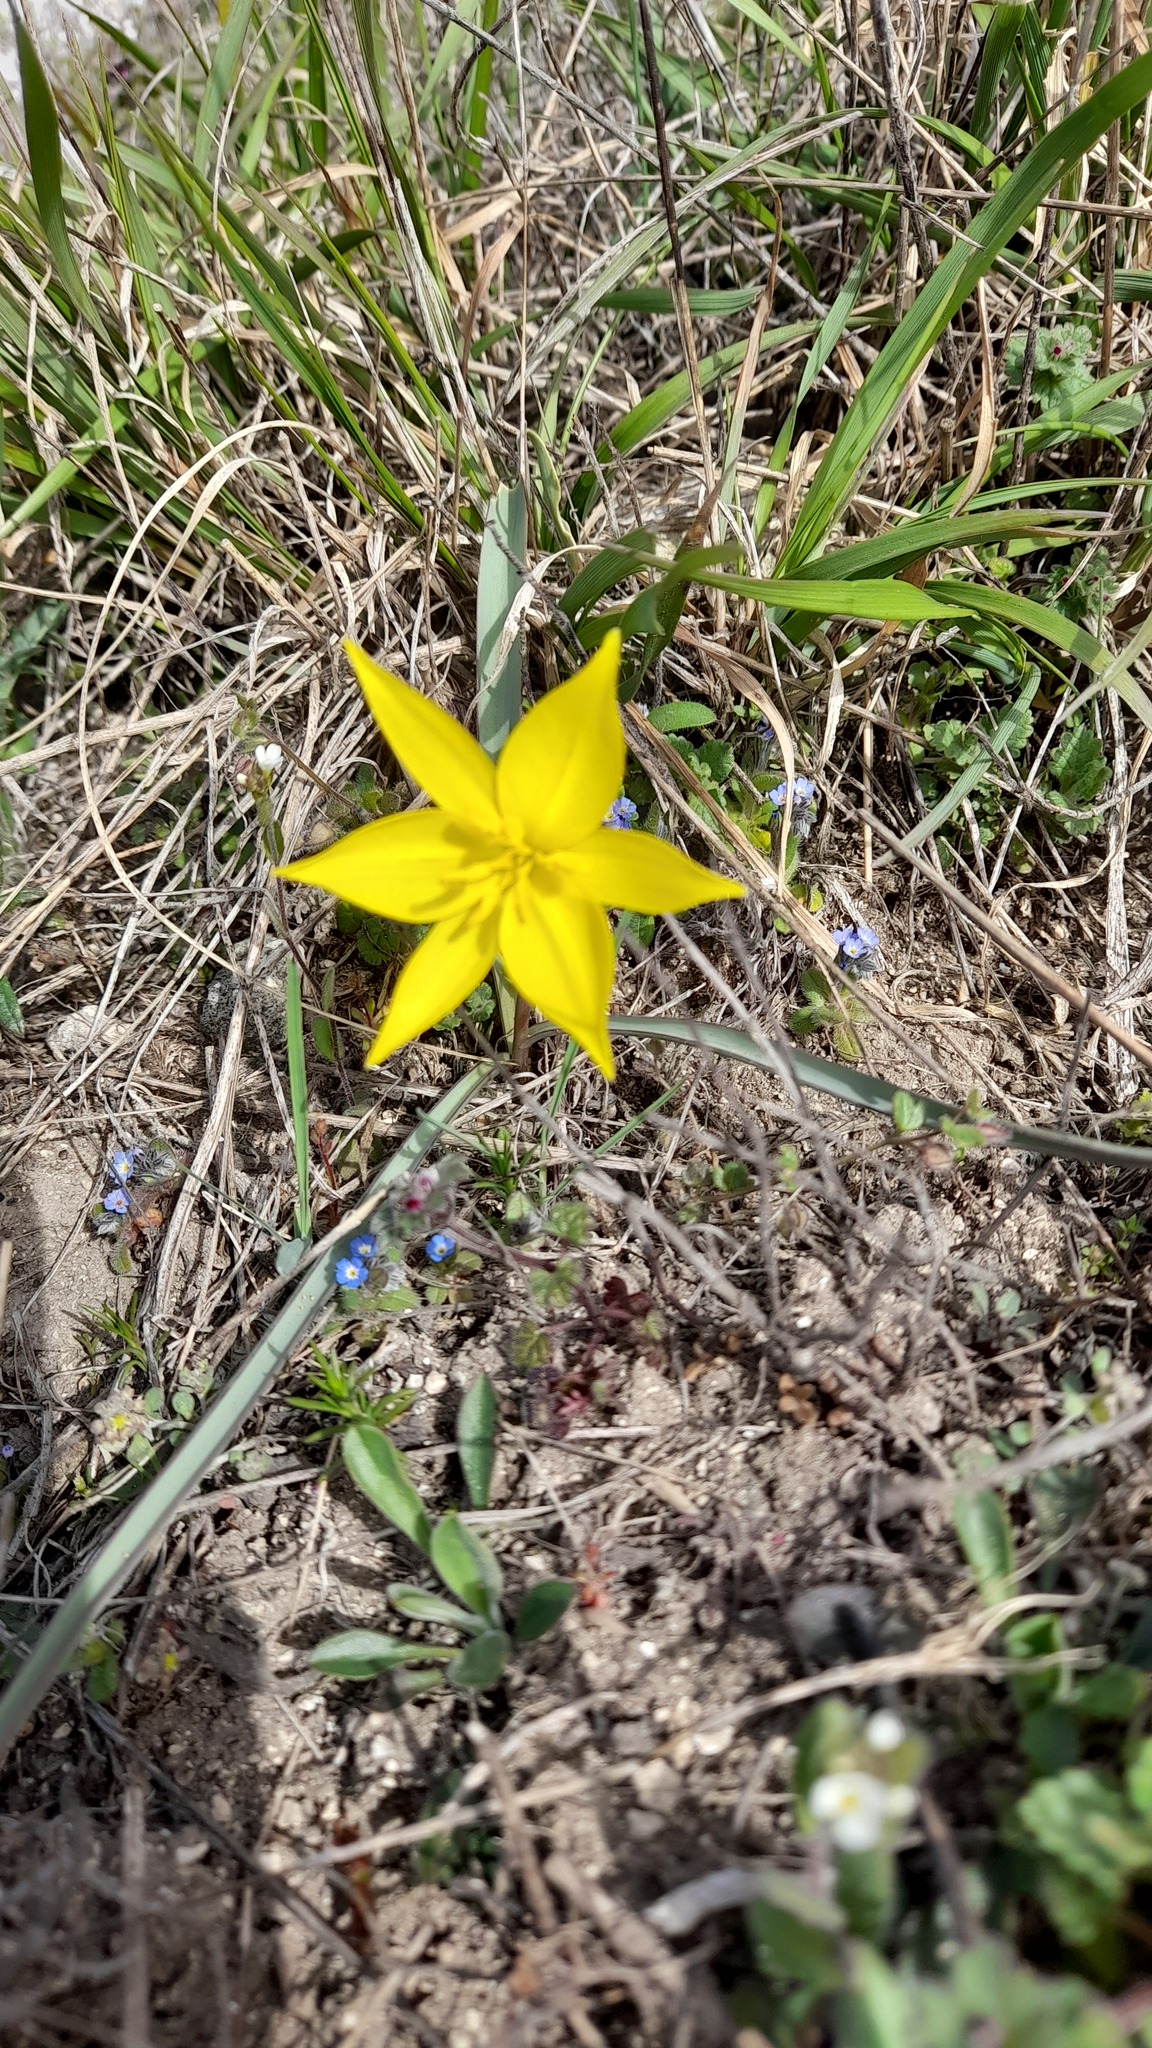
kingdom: Plantae
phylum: Tracheophyta
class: Liliopsida
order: Liliales
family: Liliaceae
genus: Tulipa
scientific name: Tulipa sylvestris
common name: Wild tulip
